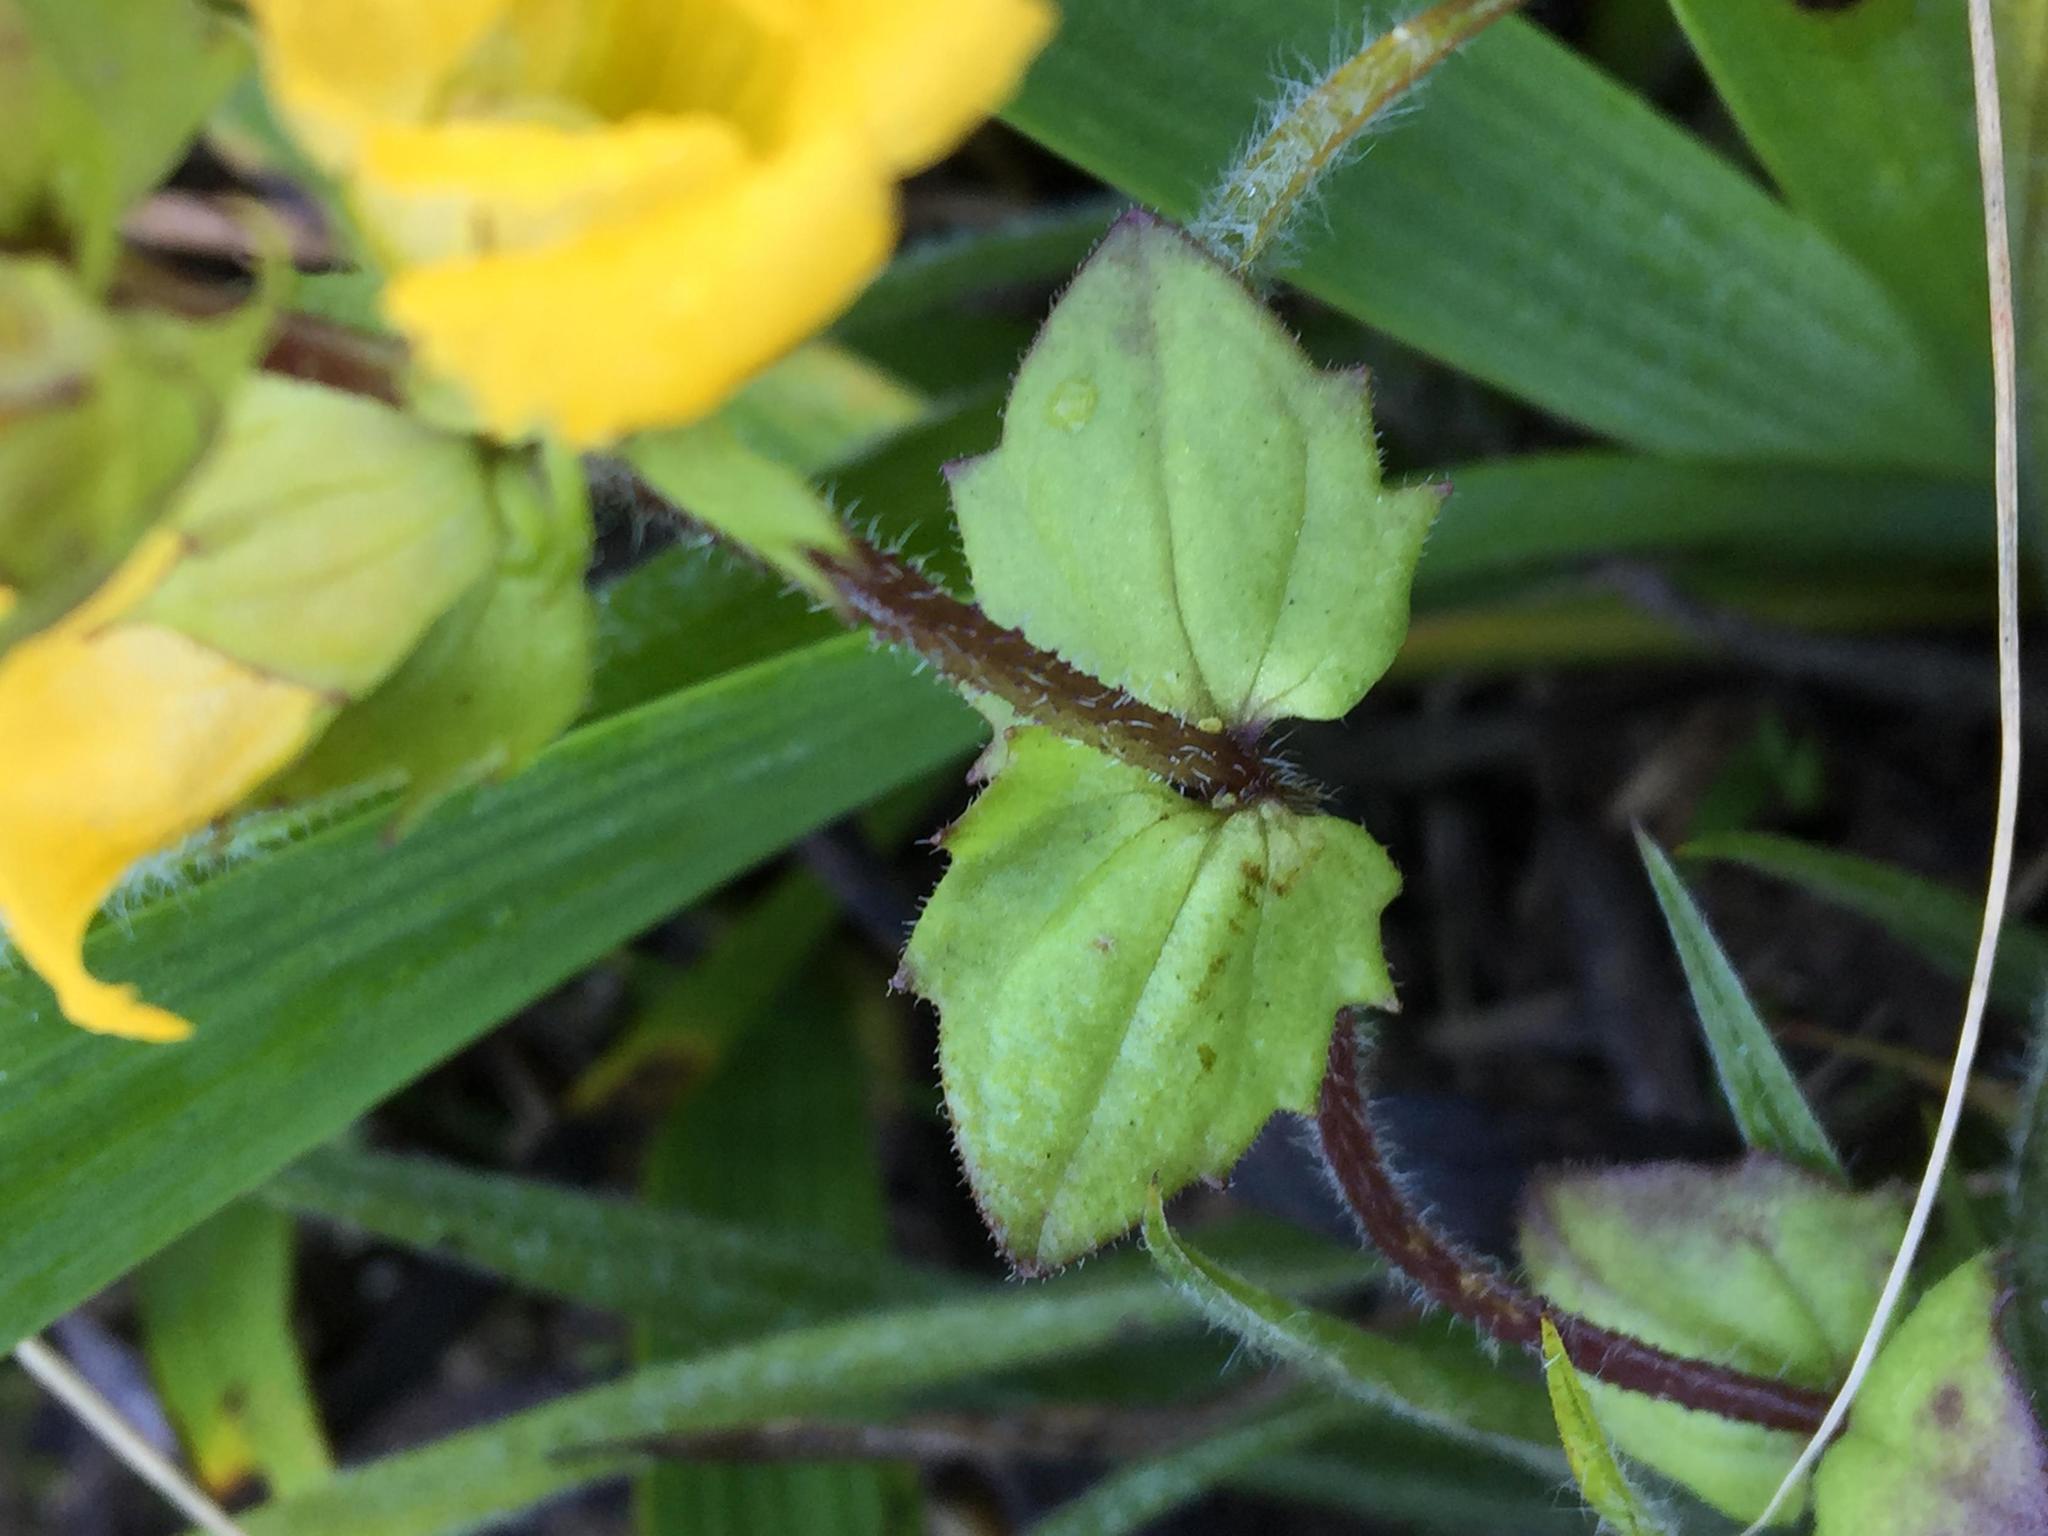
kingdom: Plantae
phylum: Tracheophyta
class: Magnoliopsida
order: Lamiales
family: Orobanchaceae
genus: Alectra
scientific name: Alectra sessiliflora
